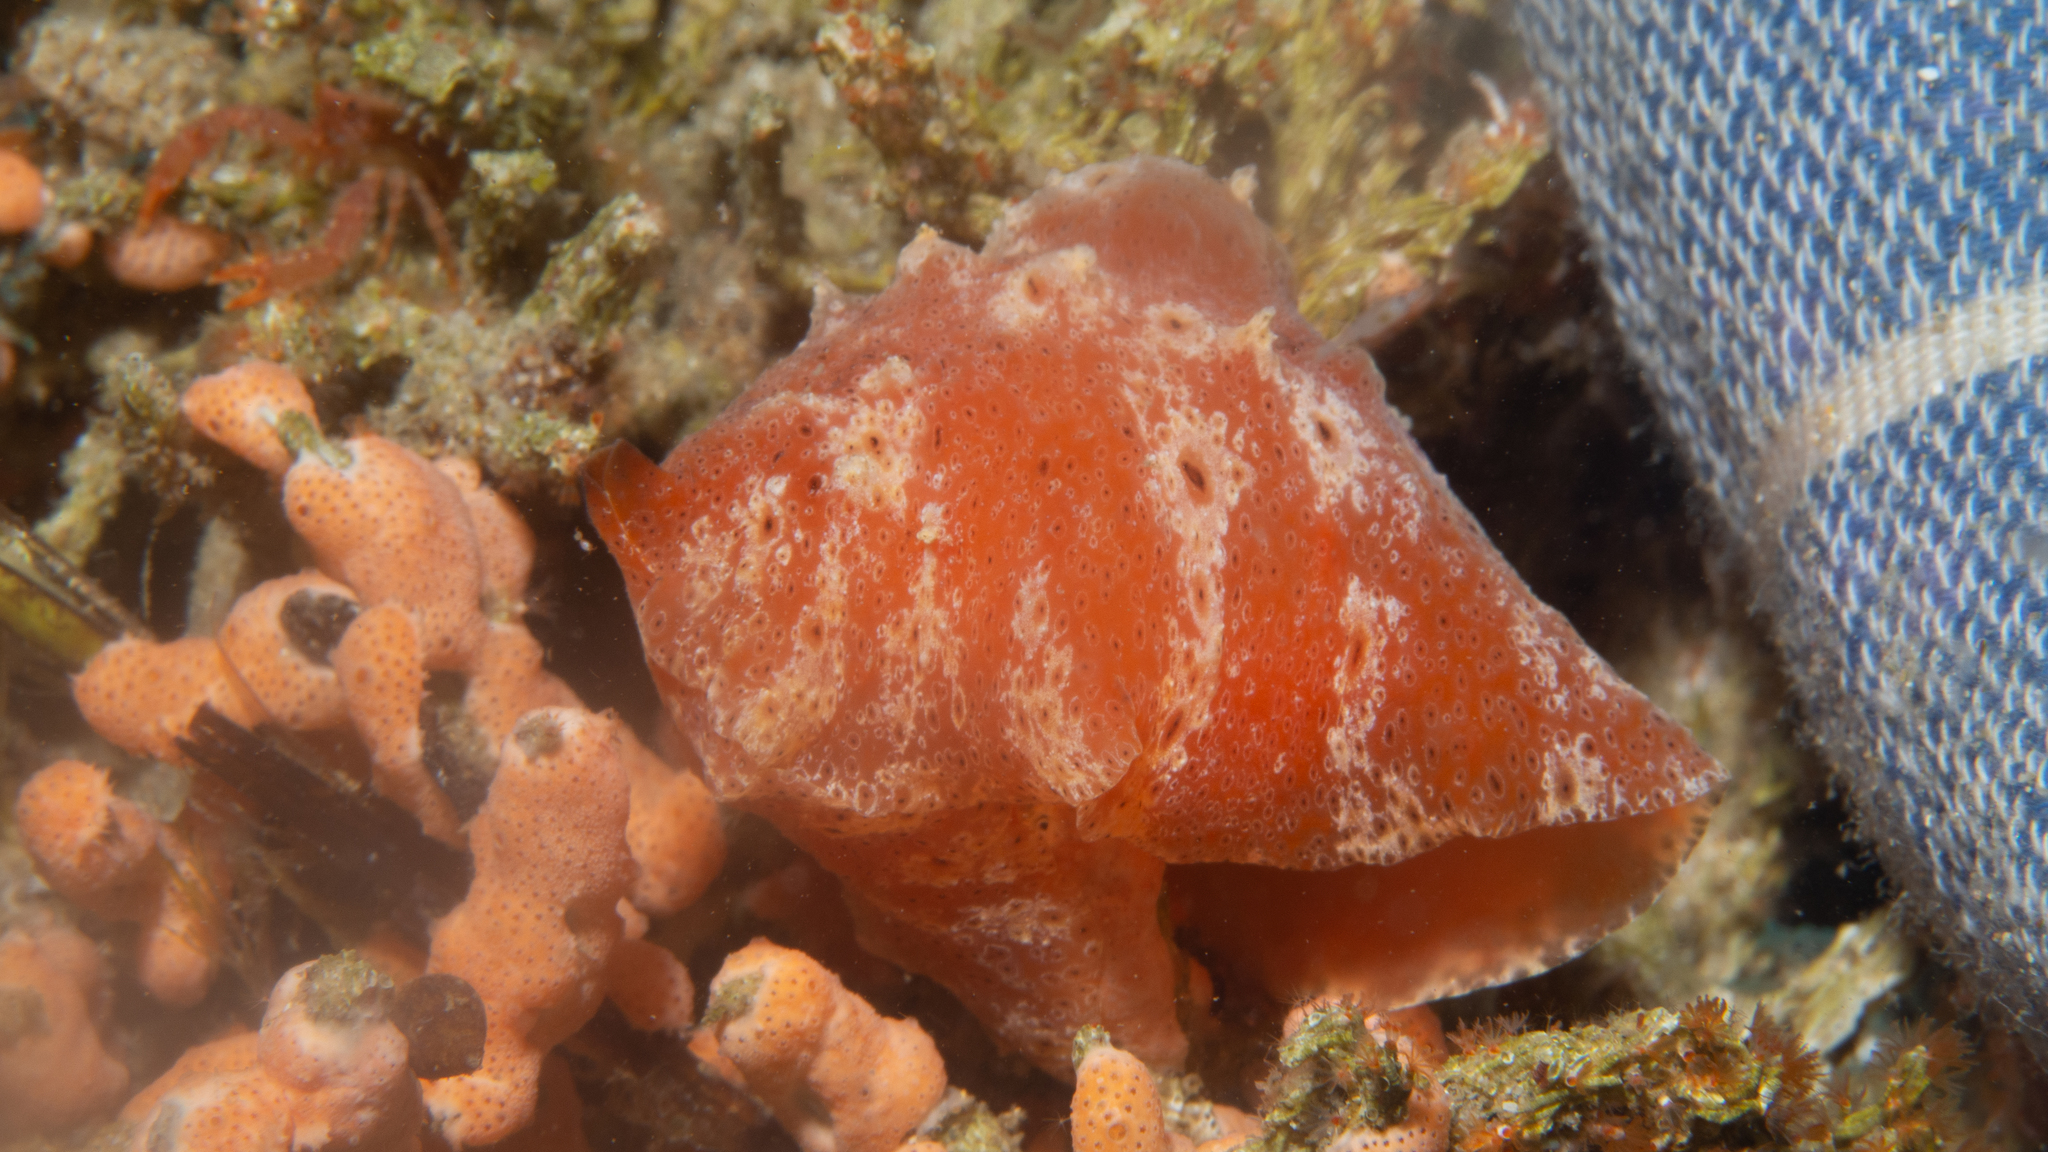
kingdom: Animalia
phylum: Mollusca
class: Gastropoda
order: Littorinimorpha
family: Velutinidae
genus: Djiboutia
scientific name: Djiboutia australis
